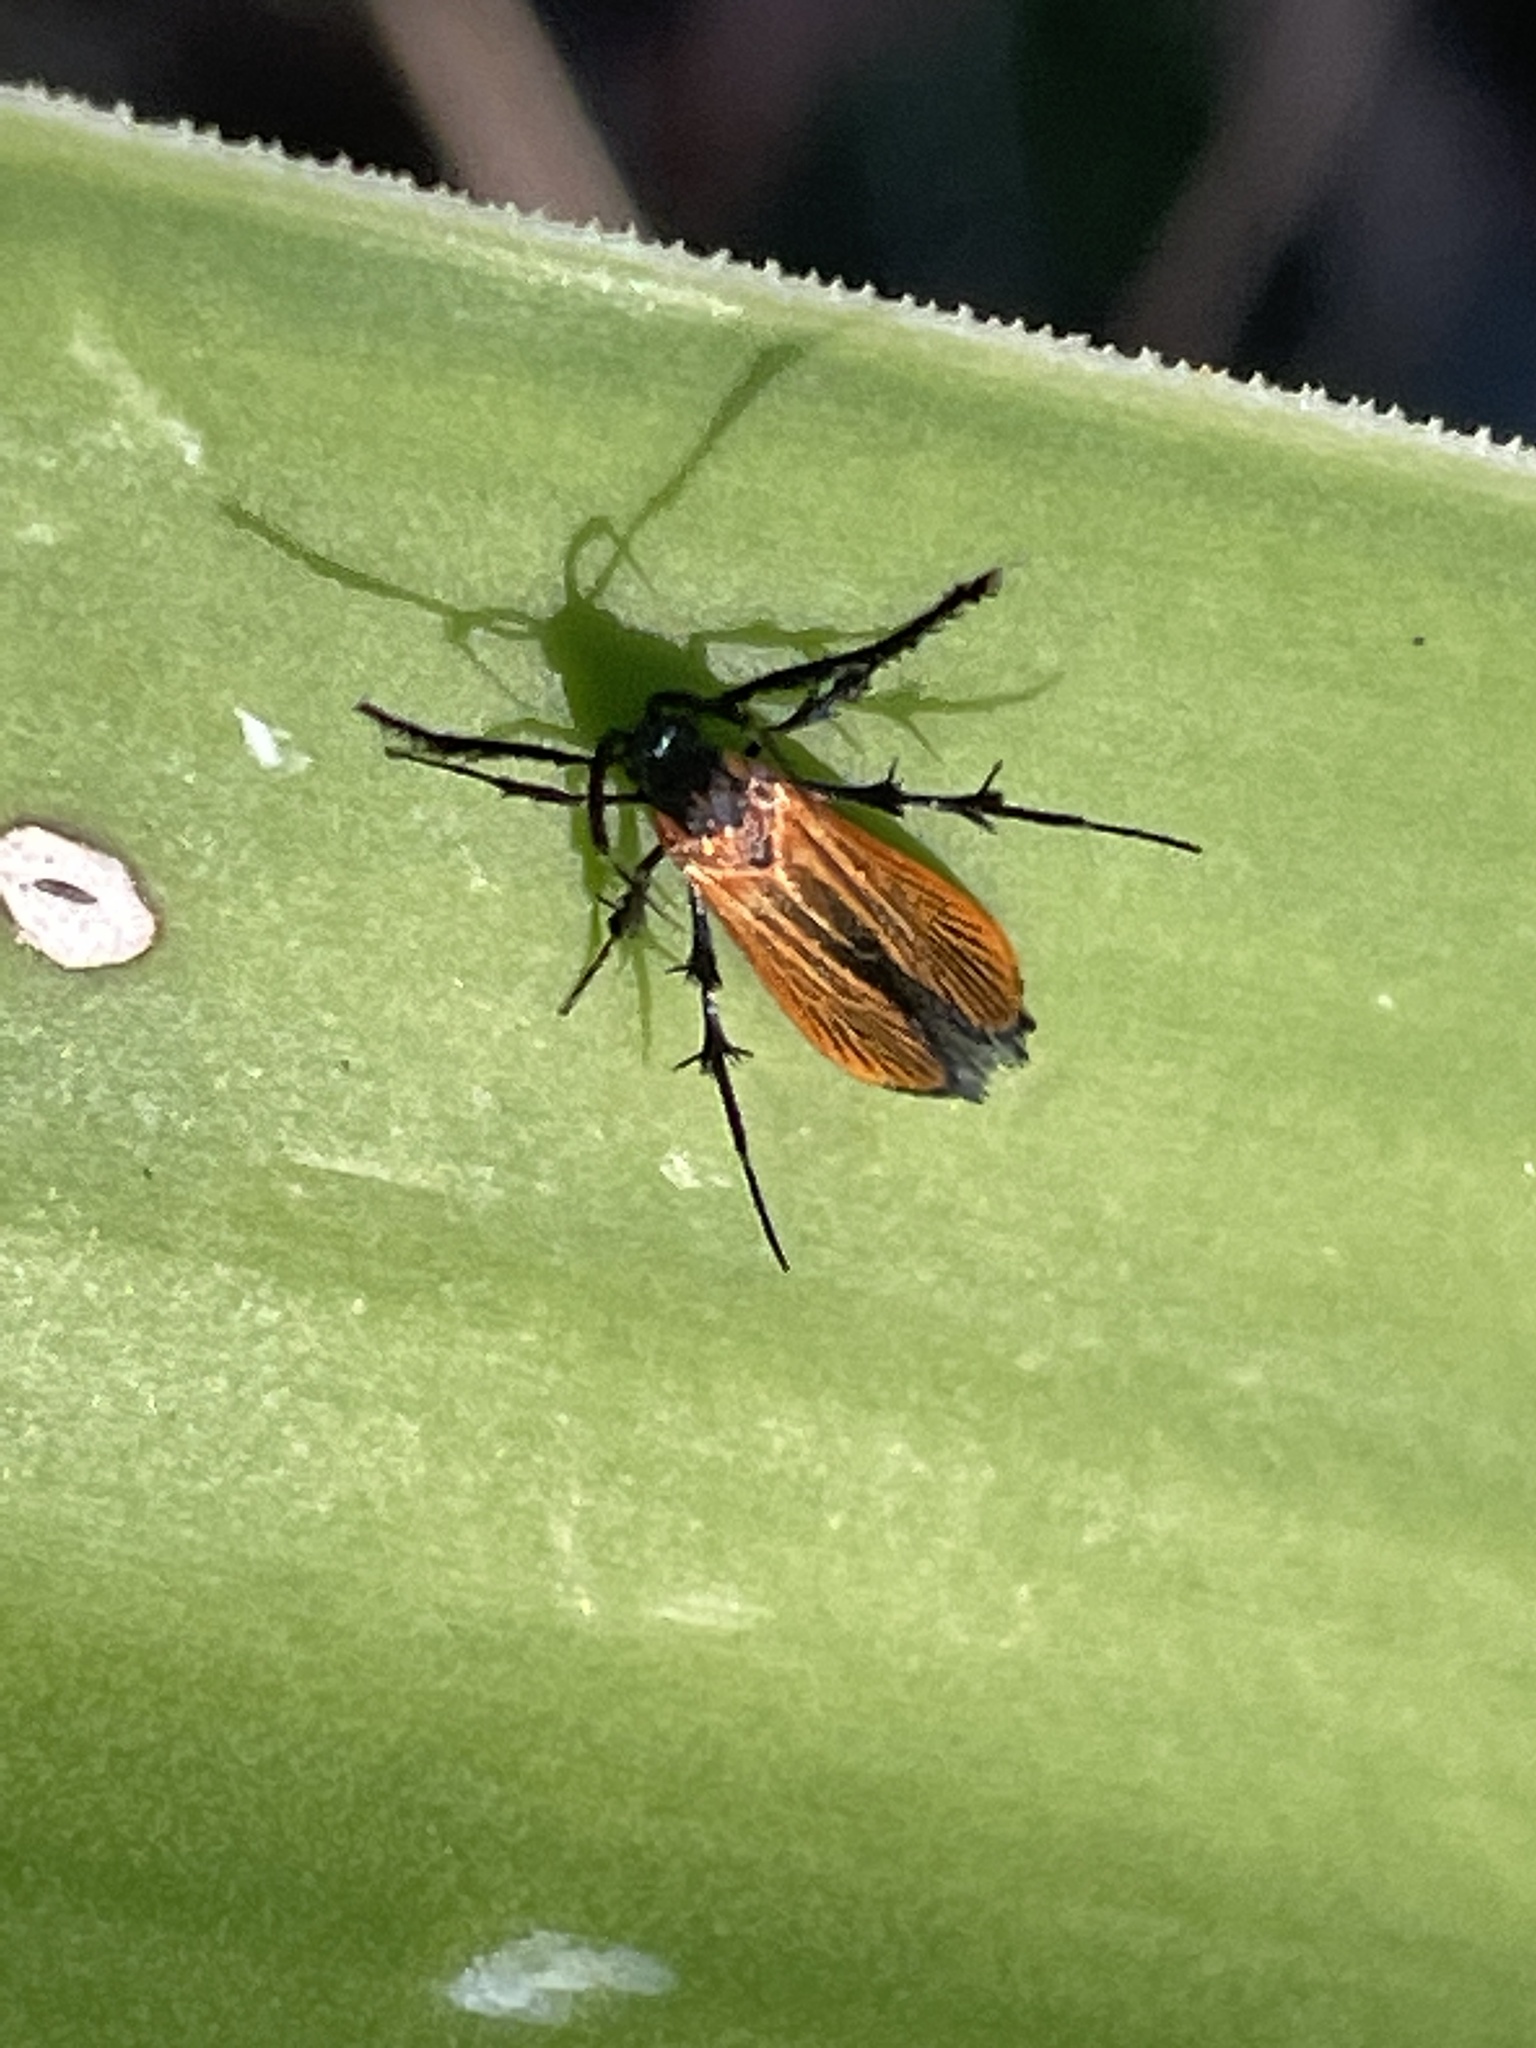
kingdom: Animalia
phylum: Arthropoda
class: Insecta
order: Lepidoptera
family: Stathmopodidae
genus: Snellenia
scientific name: Snellenia lineata
